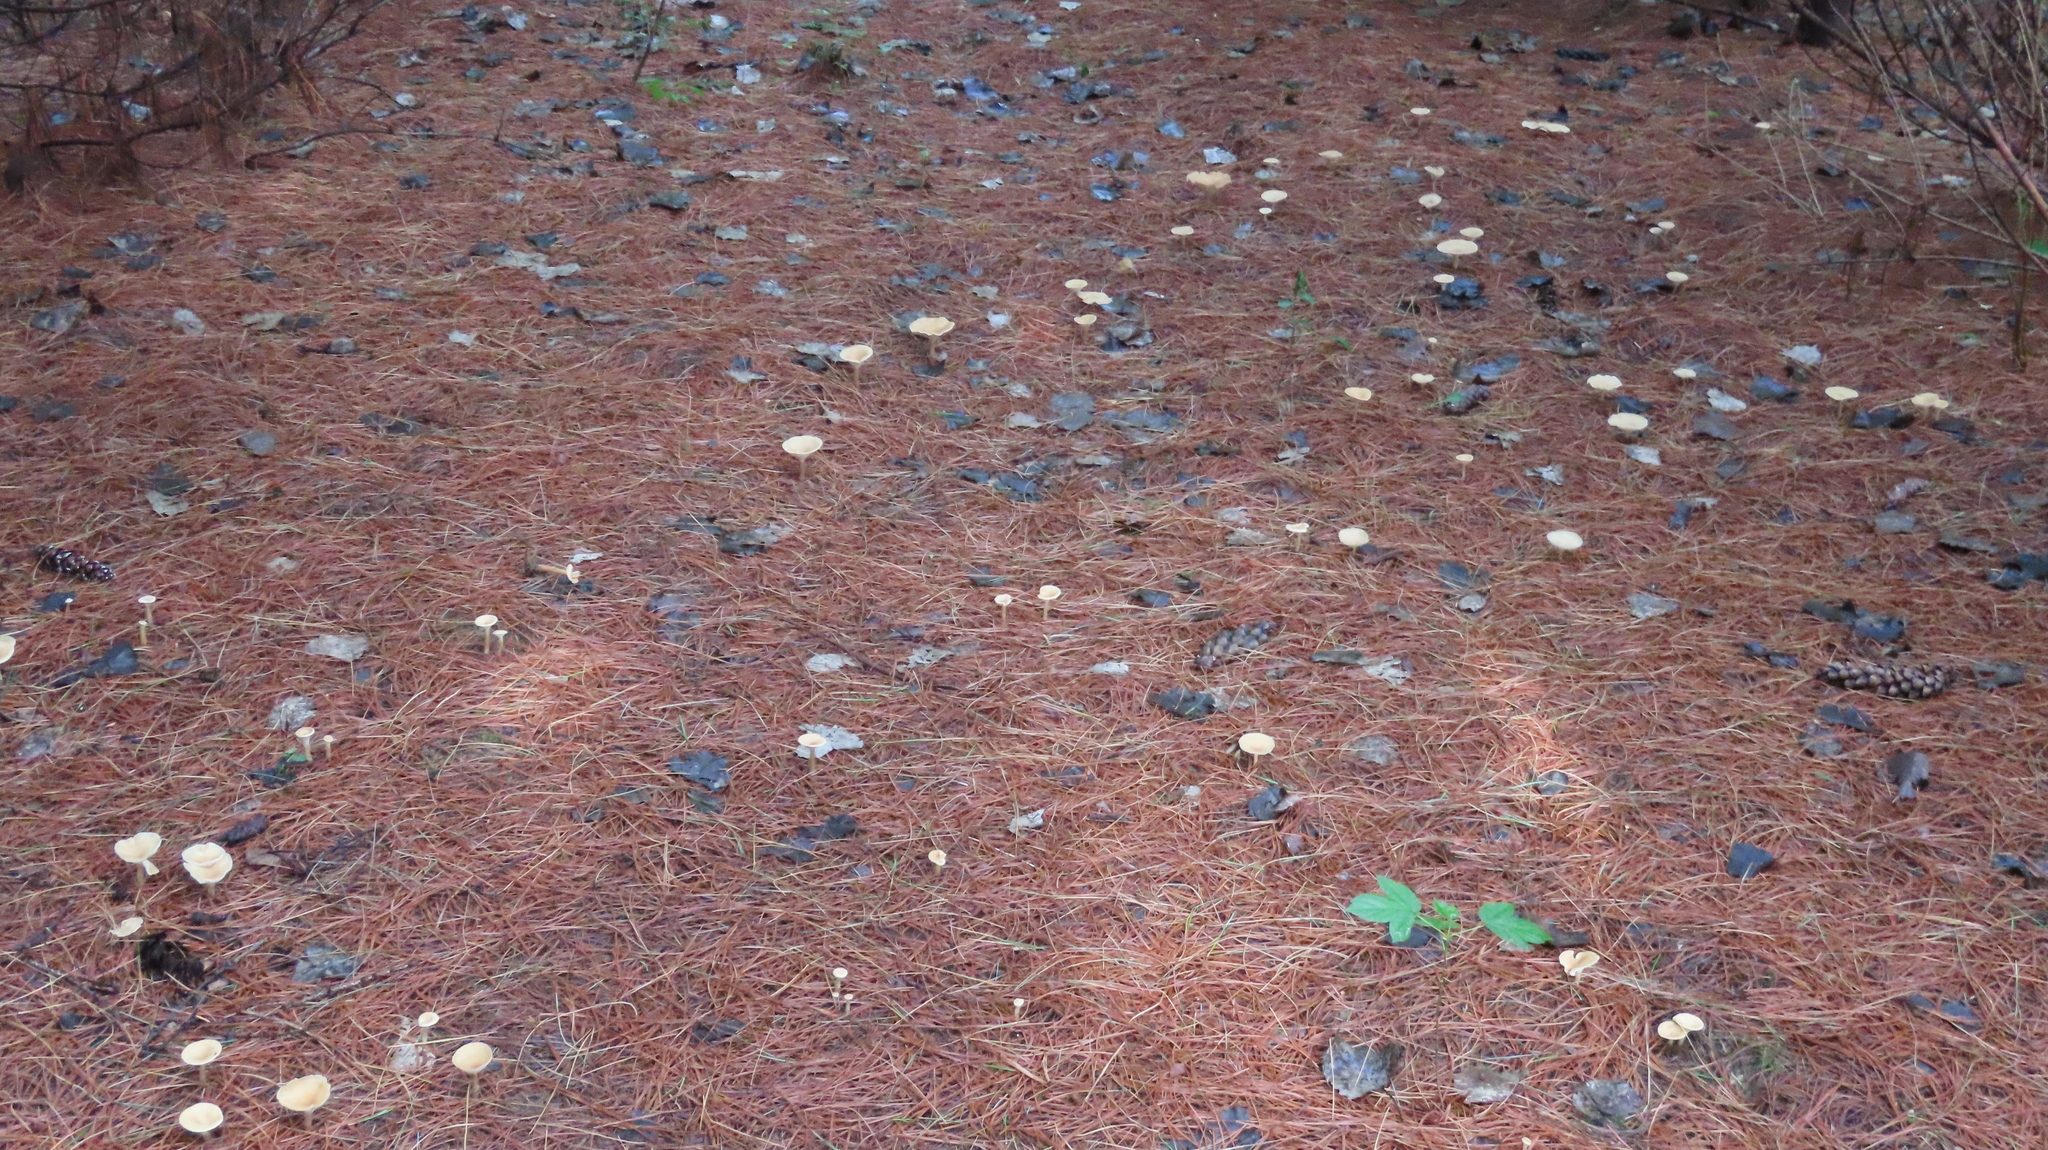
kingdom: Fungi
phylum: Basidiomycota
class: Agaricomycetes
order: Agaricales
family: Tricholomataceae
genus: Infundibulicybe
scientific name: Infundibulicybe gibba
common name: Common funnel
